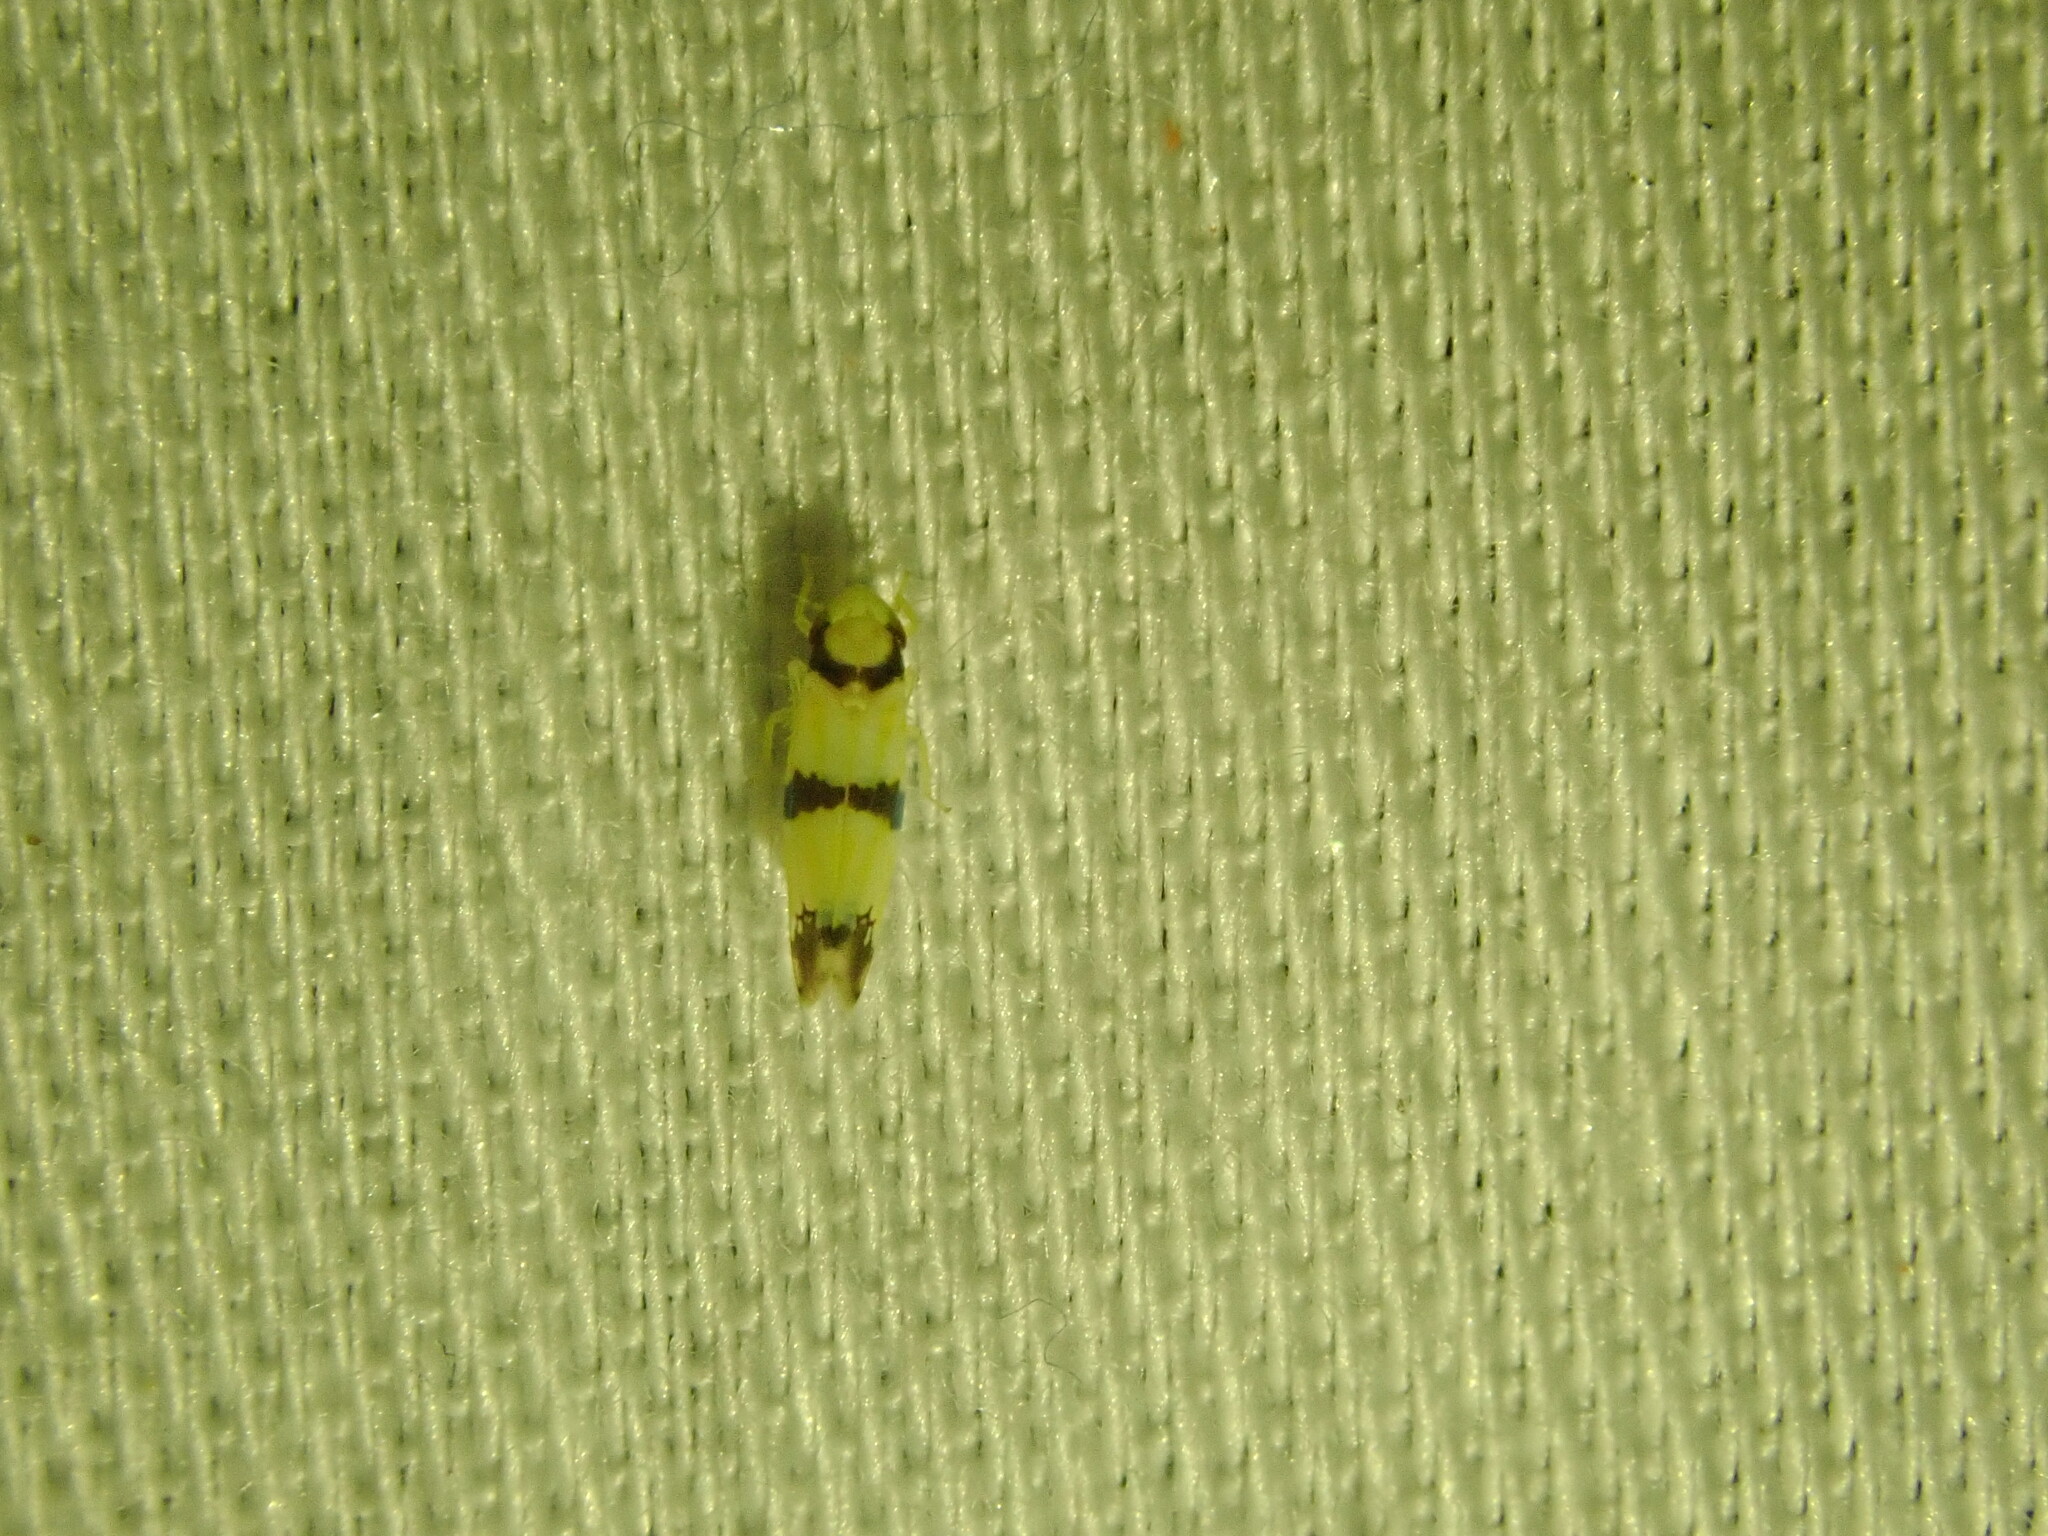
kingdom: Animalia
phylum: Arthropoda
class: Insecta
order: Hemiptera
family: Cicadellidae
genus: Erythroneura
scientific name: Erythroneura calycula
